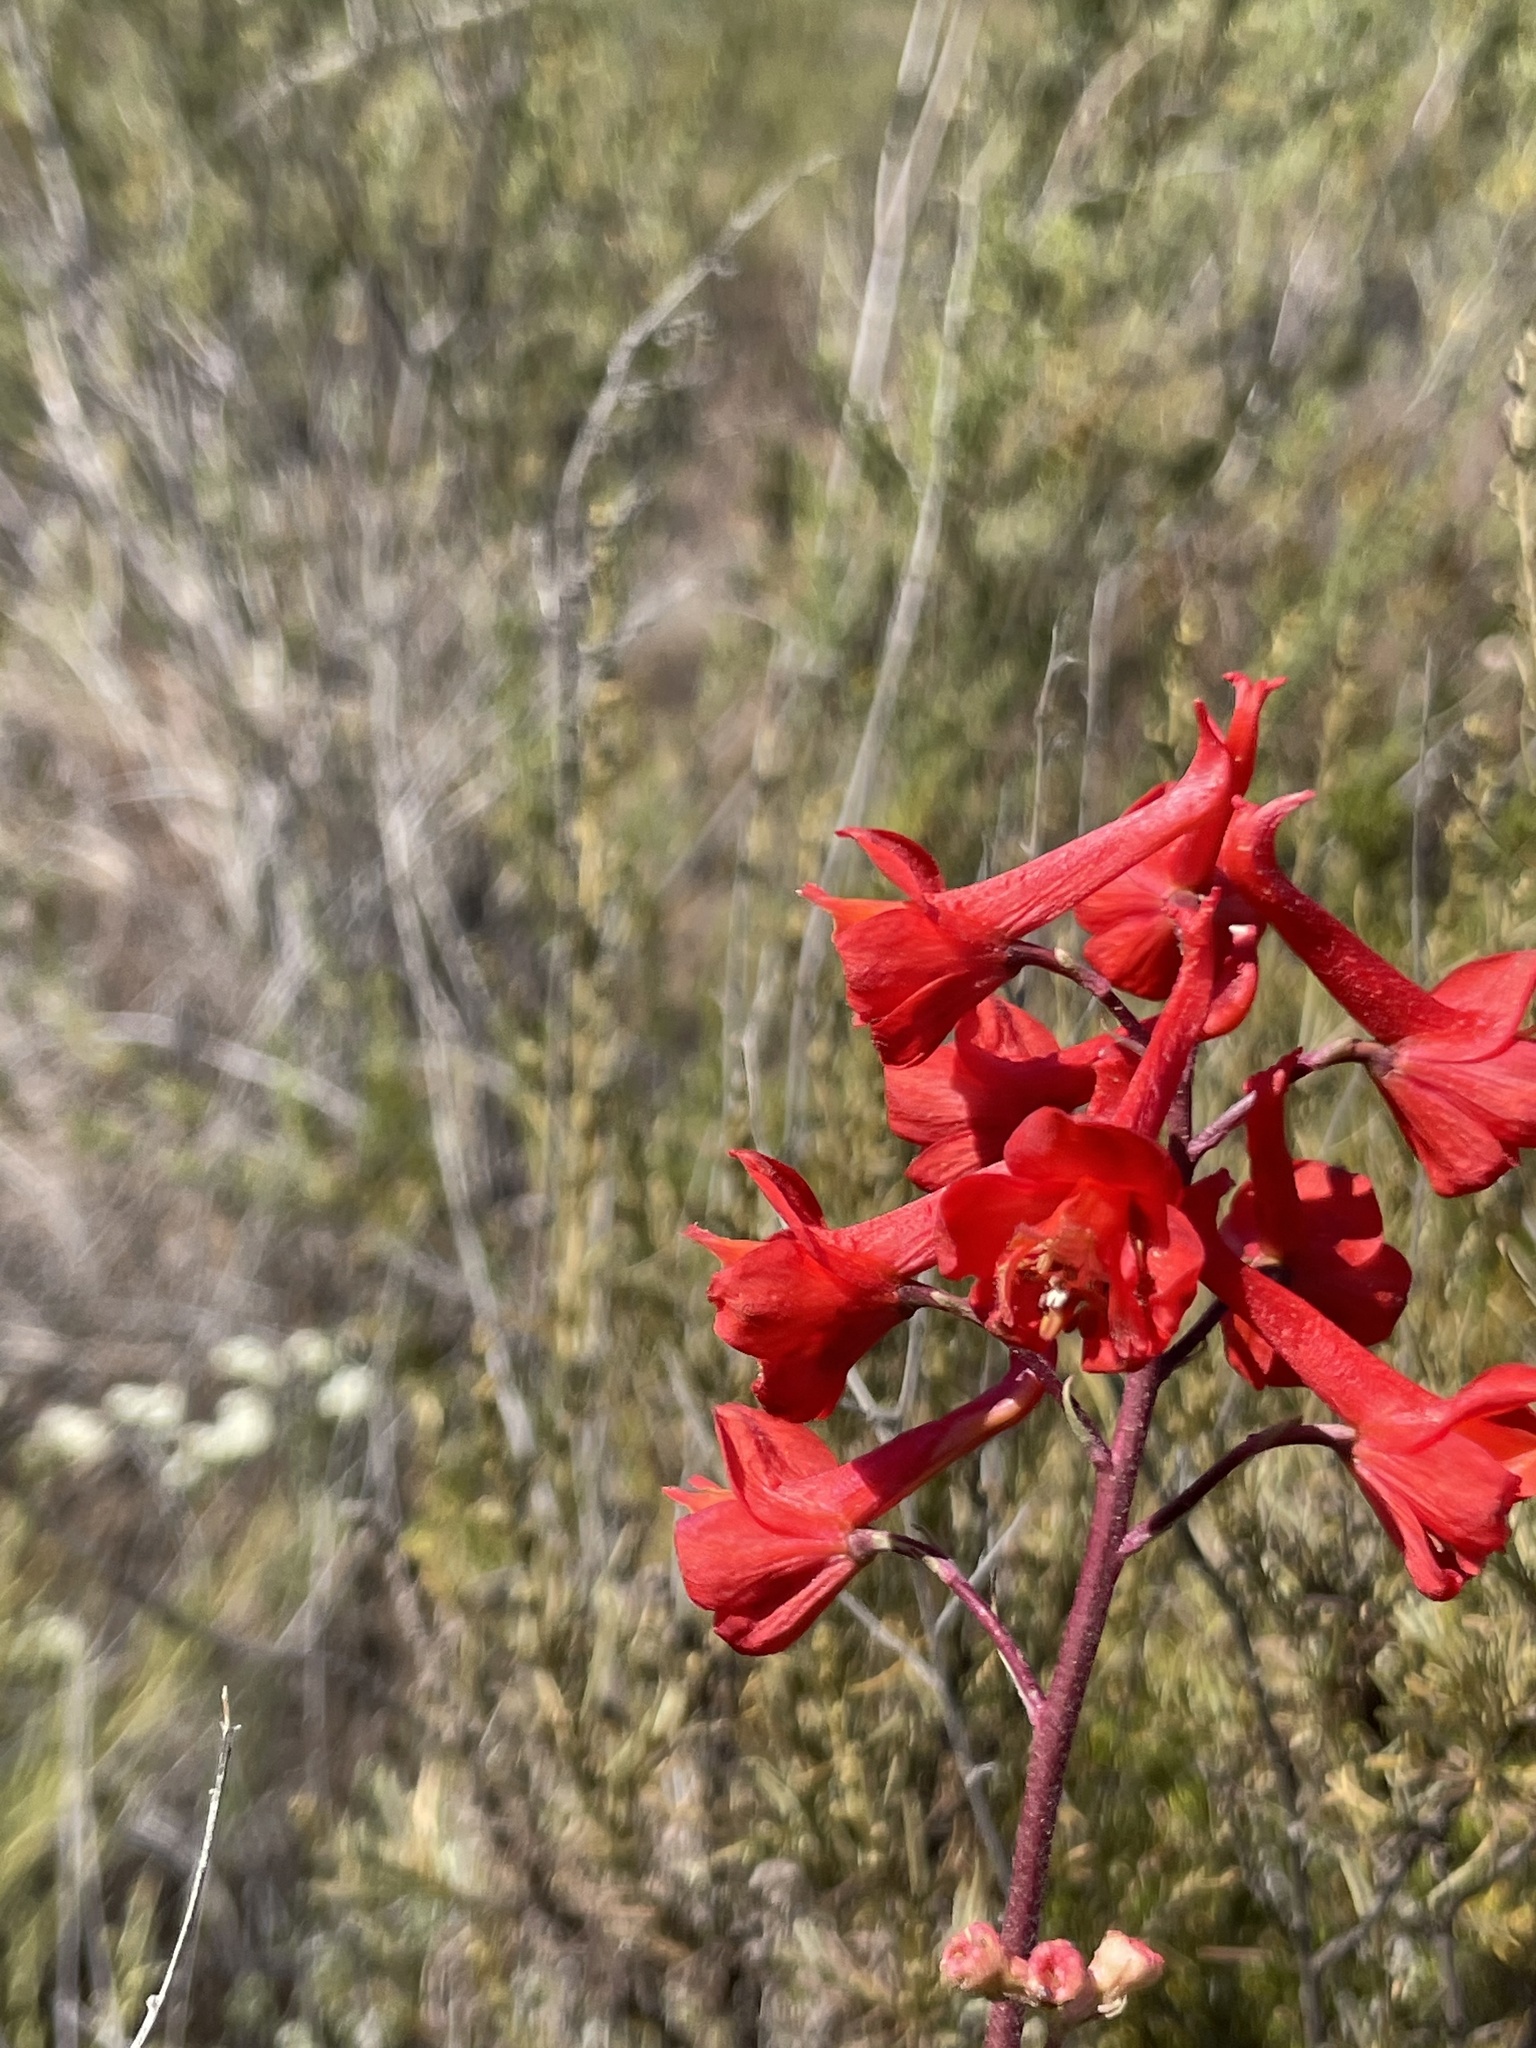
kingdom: Plantae
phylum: Tracheophyta
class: Magnoliopsida
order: Ranunculales
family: Ranunculaceae
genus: Delphinium
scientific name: Delphinium cardinale
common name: Scarlet larkspur
